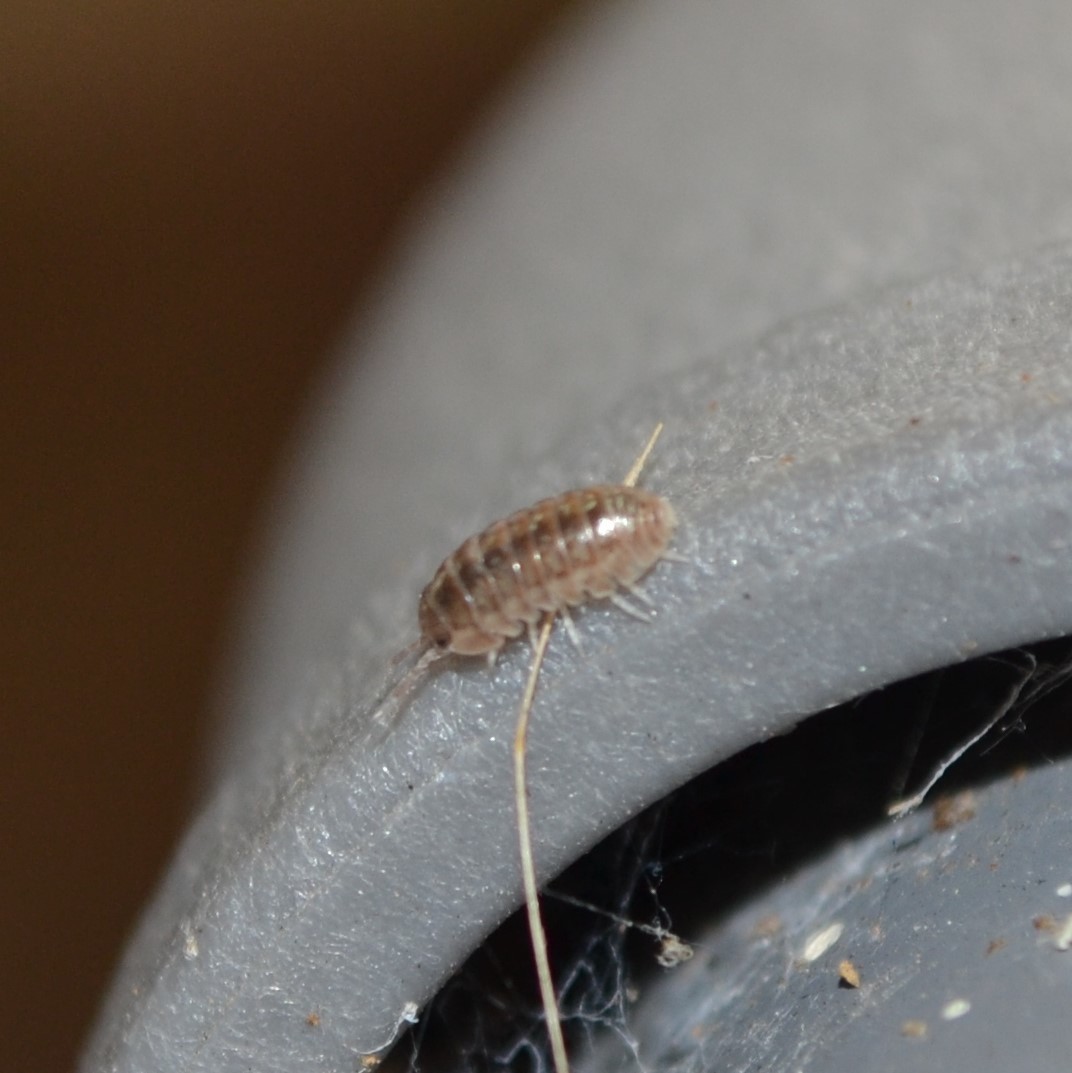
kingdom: Animalia
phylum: Arthropoda
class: Malacostraca
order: Isopoda
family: Armadillidiidae
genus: Armadillidium
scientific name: Armadillidium vulgare
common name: Common pill woodlouse
